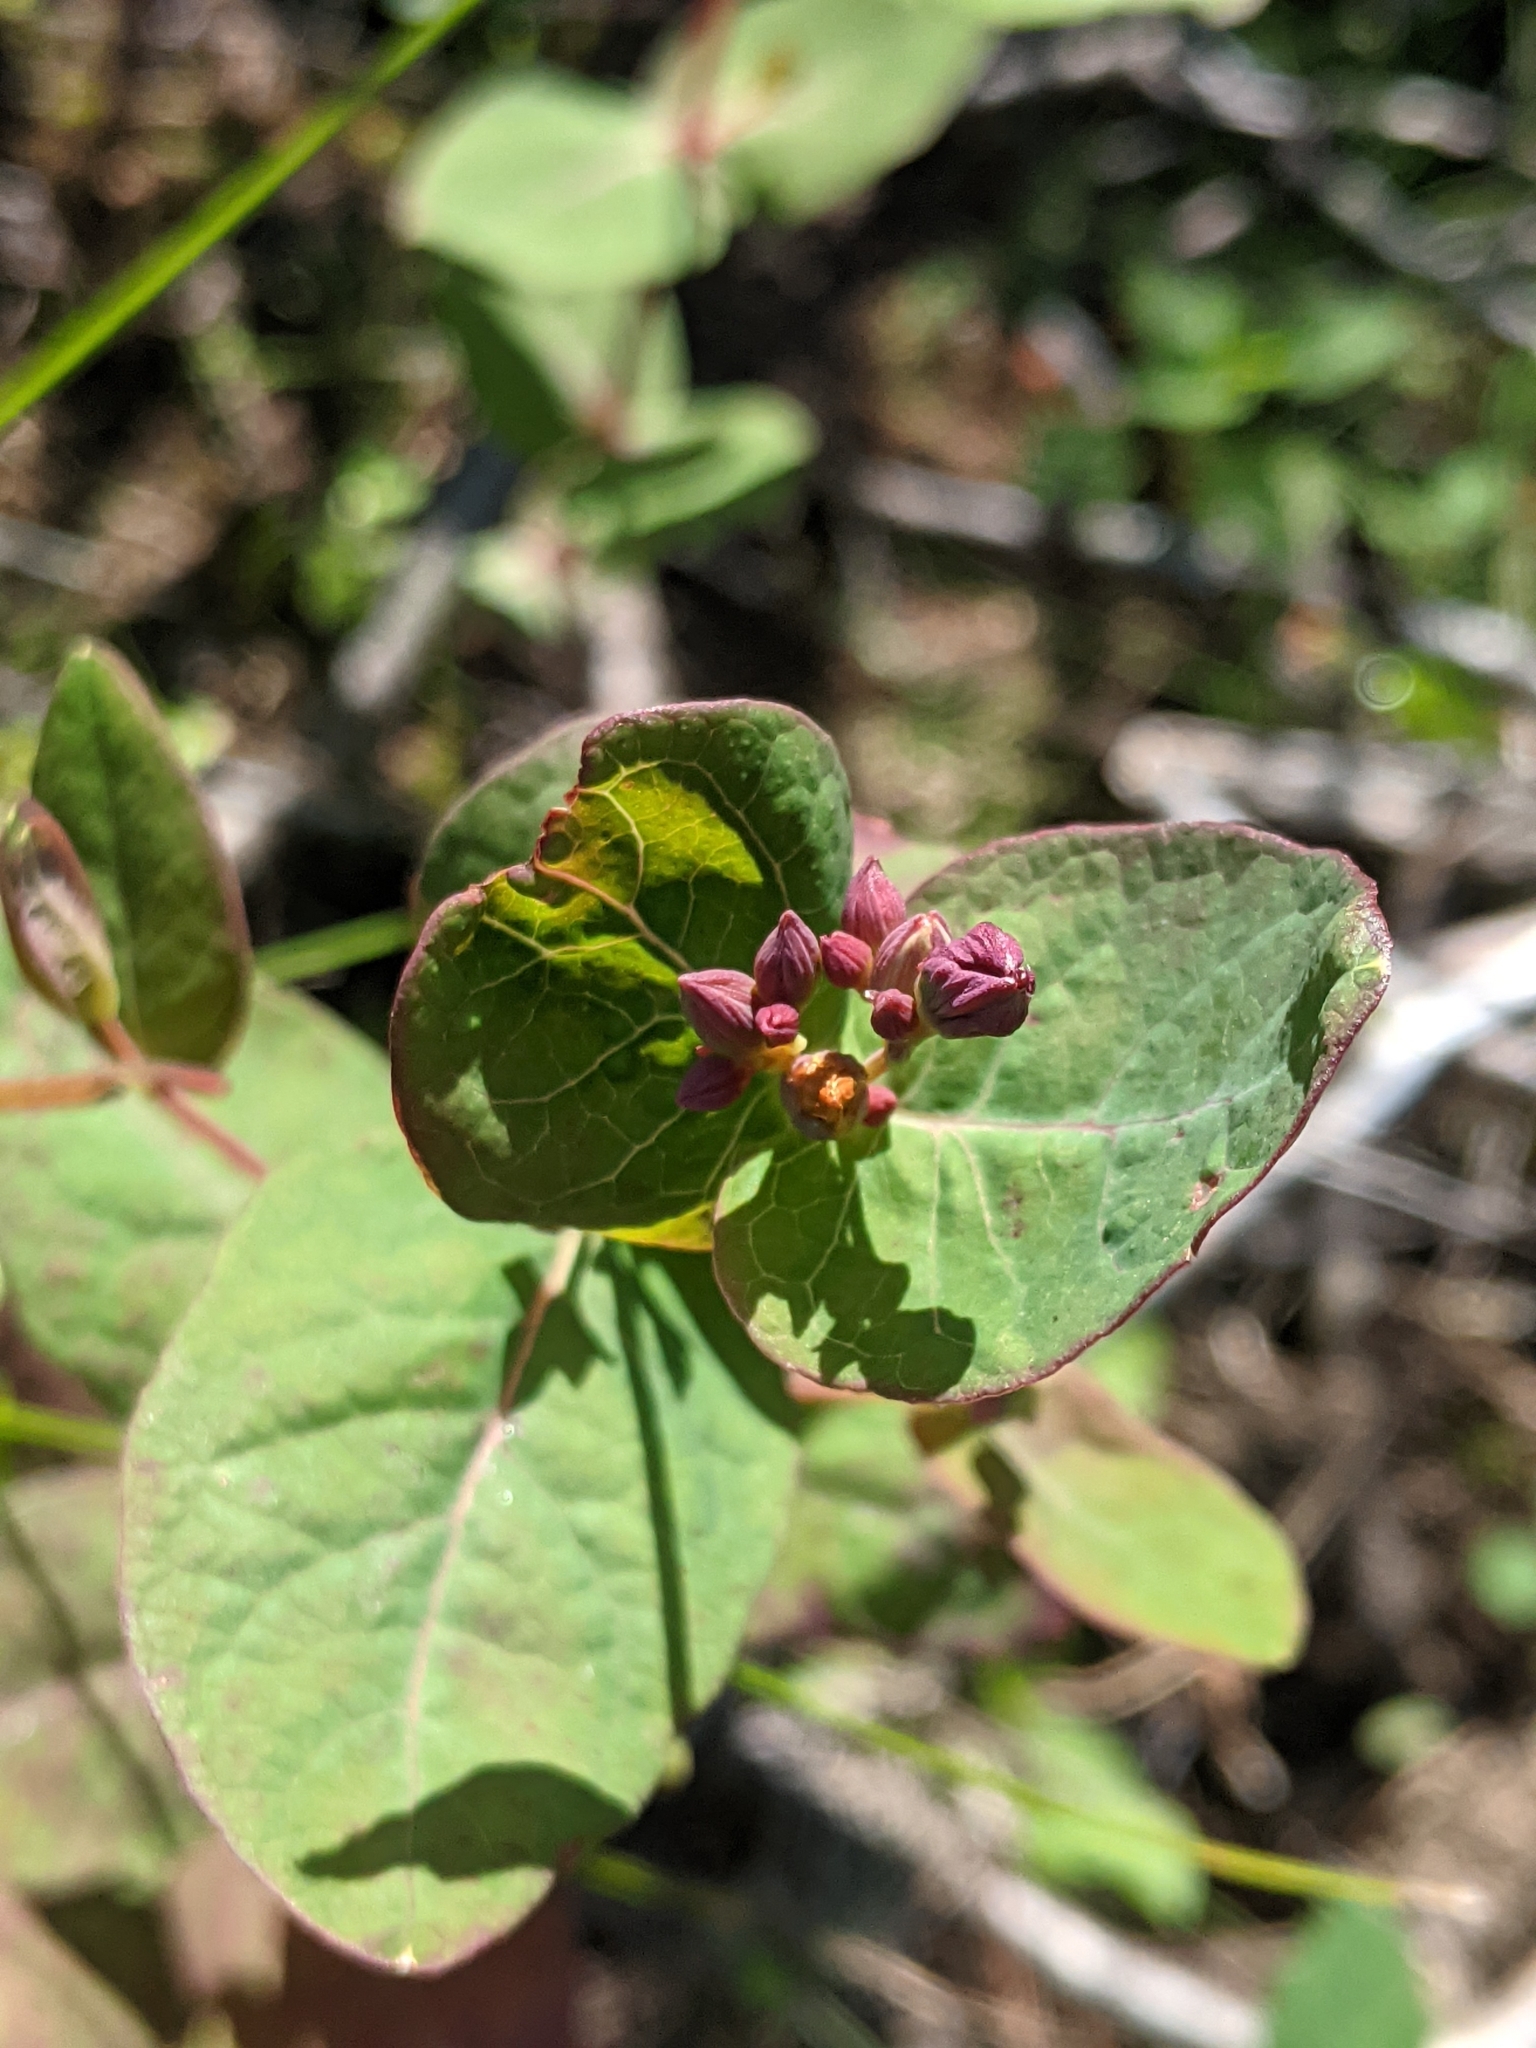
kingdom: Plantae
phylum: Tracheophyta
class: Magnoliopsida
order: Malpighiales
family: Hypericaceae
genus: Triadenum
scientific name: Triadenum fraseri
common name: Fraser's marsh st. johnswort
